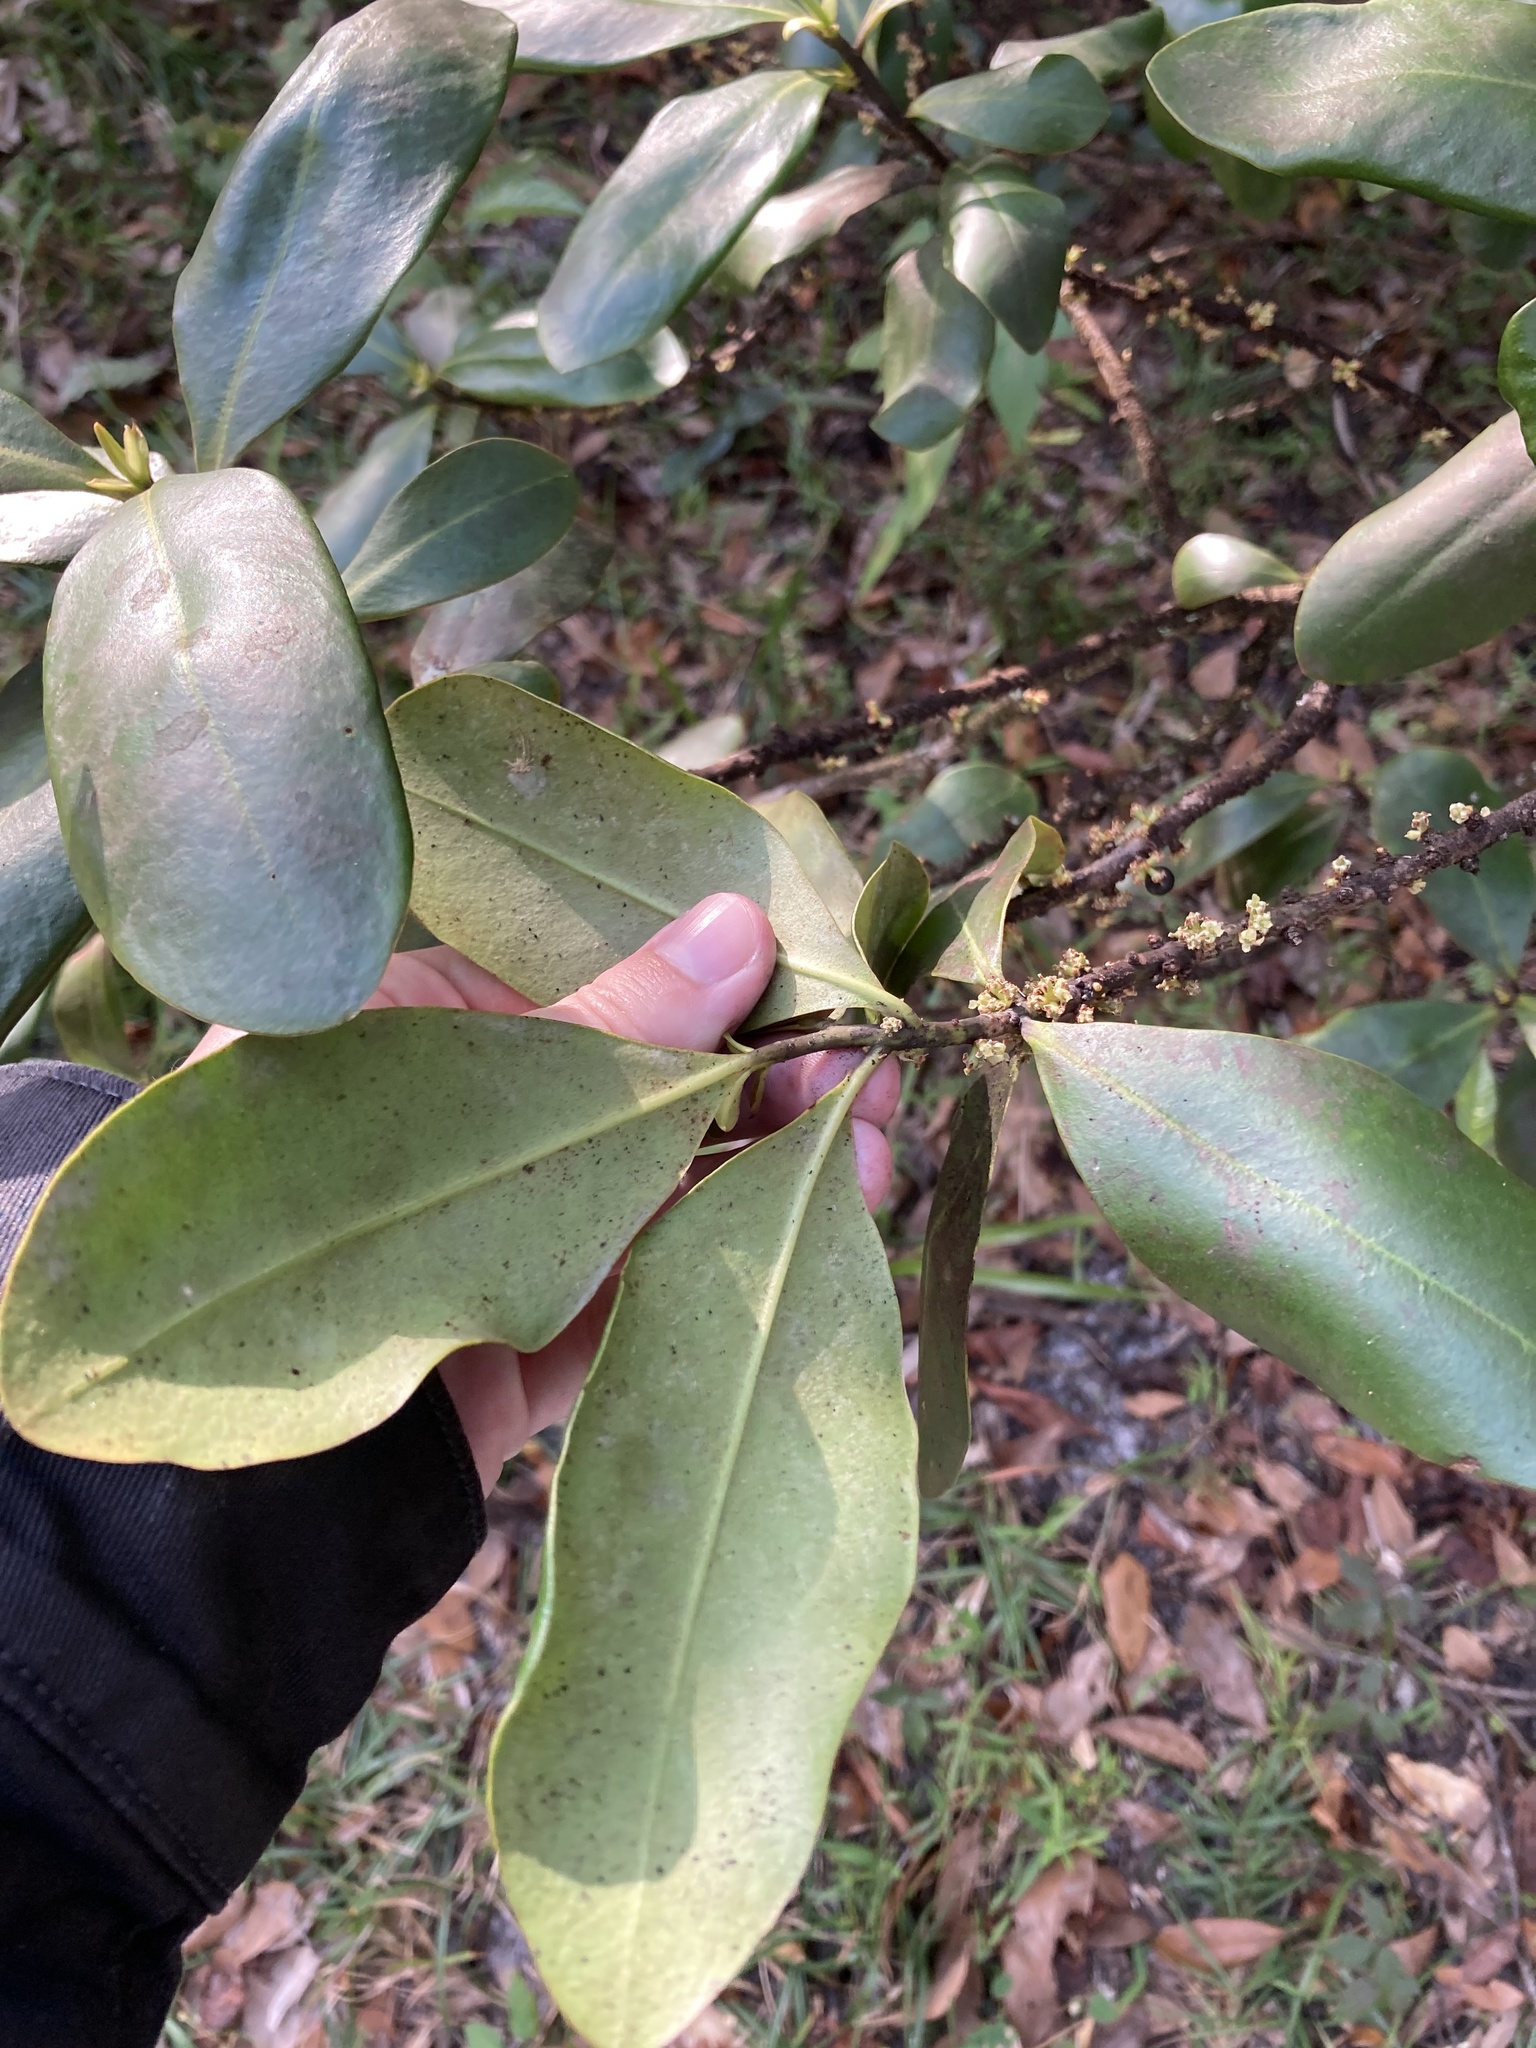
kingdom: Plantae
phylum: Tracheophyta
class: Magnoliopsida
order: Ericales
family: Primulaceae
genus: Myrsine
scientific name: Myrsine floridana
